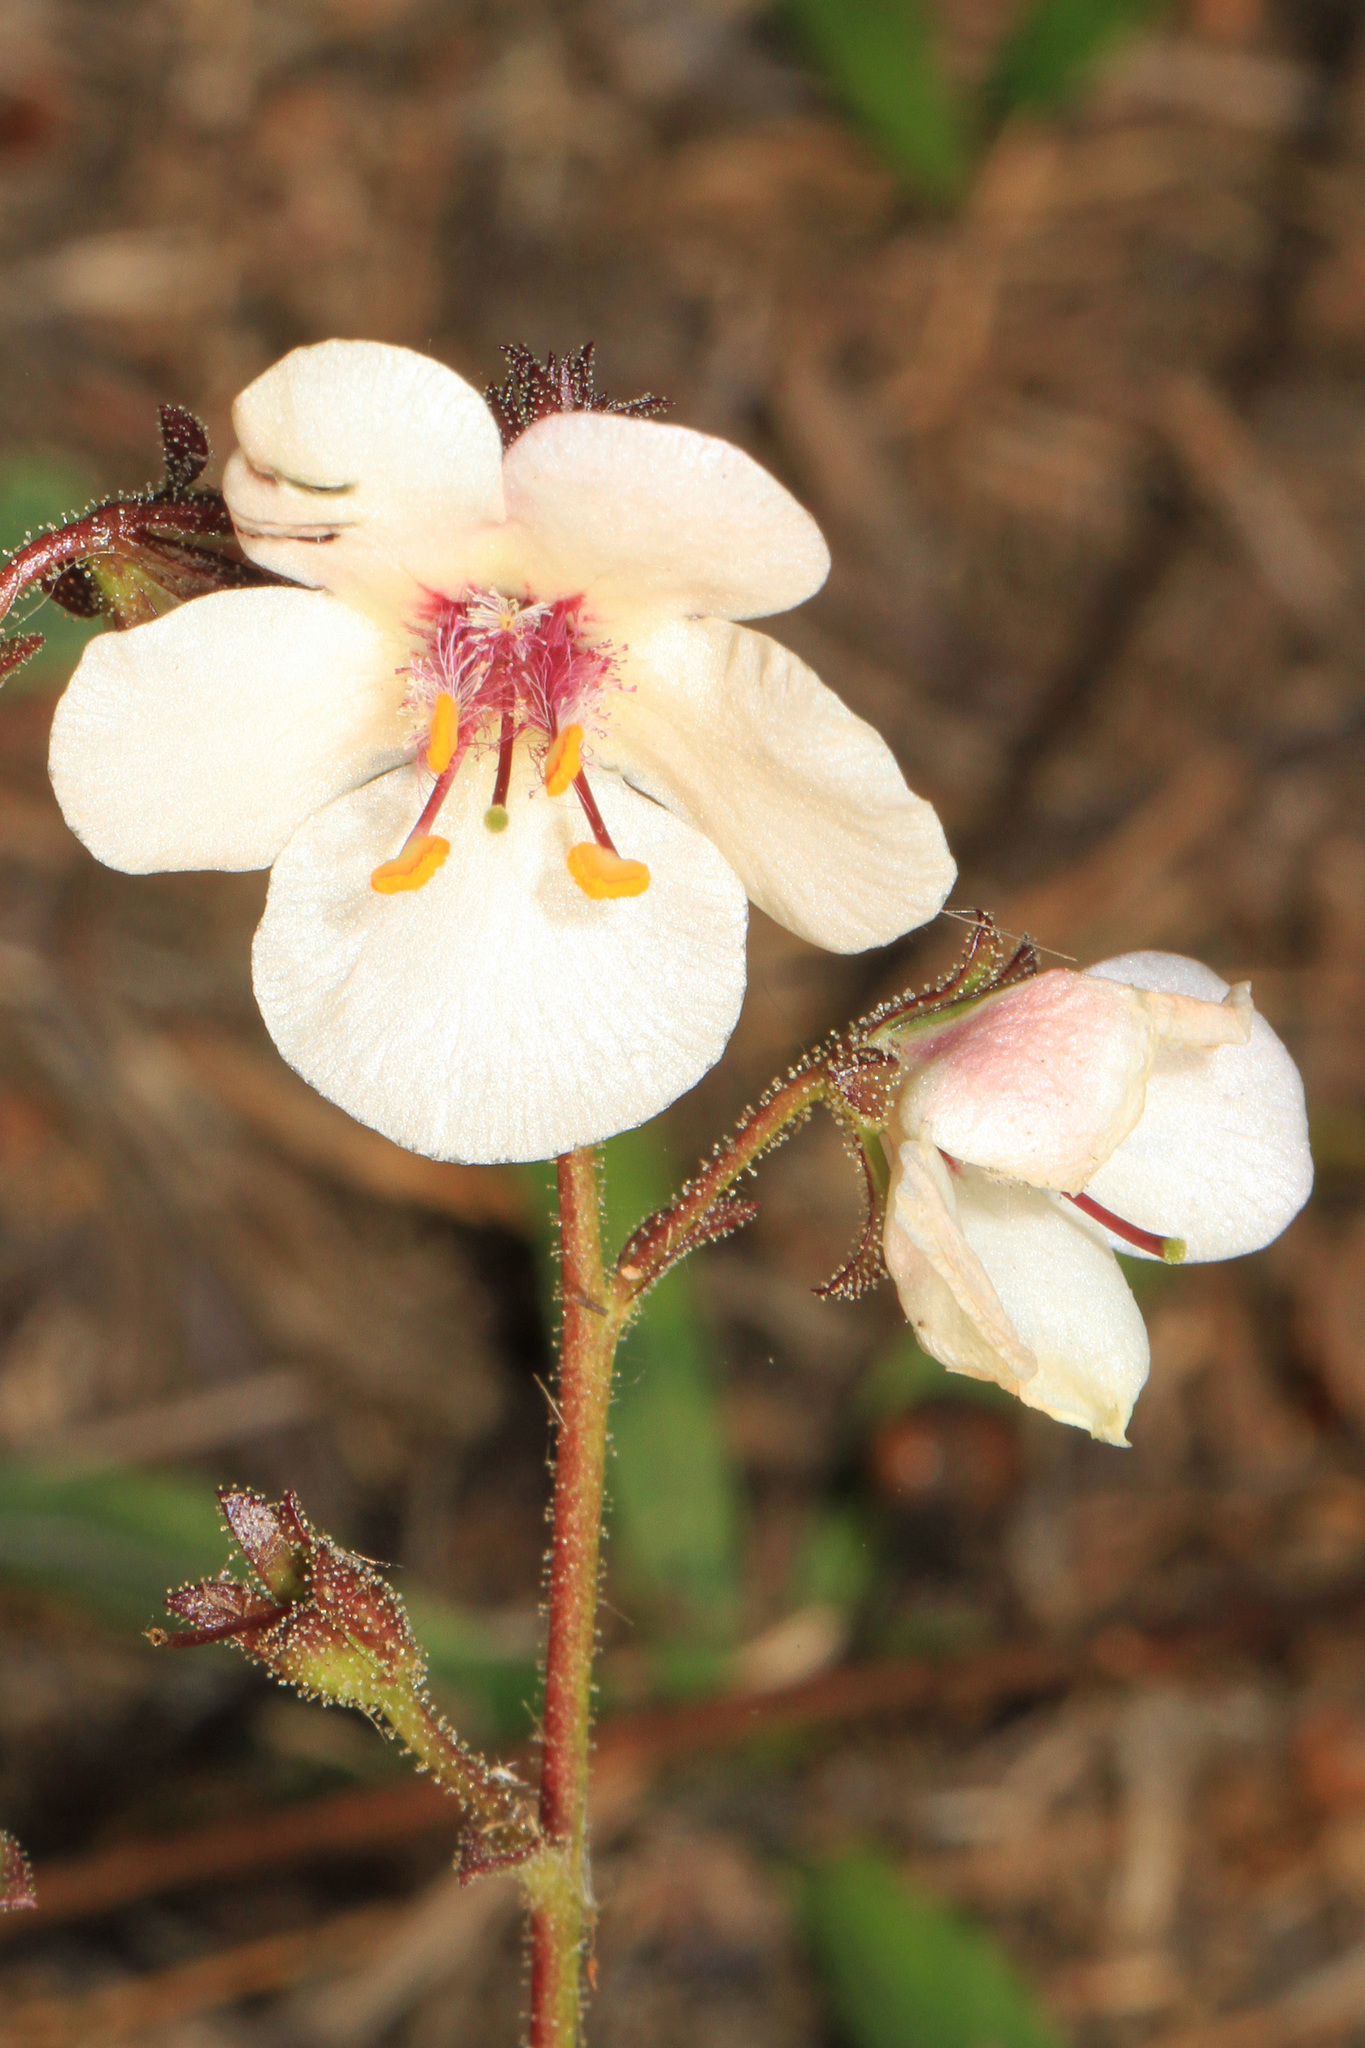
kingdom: Plantae
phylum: Tracheophyta
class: Magnoliopsida
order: Lamiales
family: Scrophulariaceae
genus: Verbascum
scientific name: Verbascum blattaria
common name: Moth mullein
